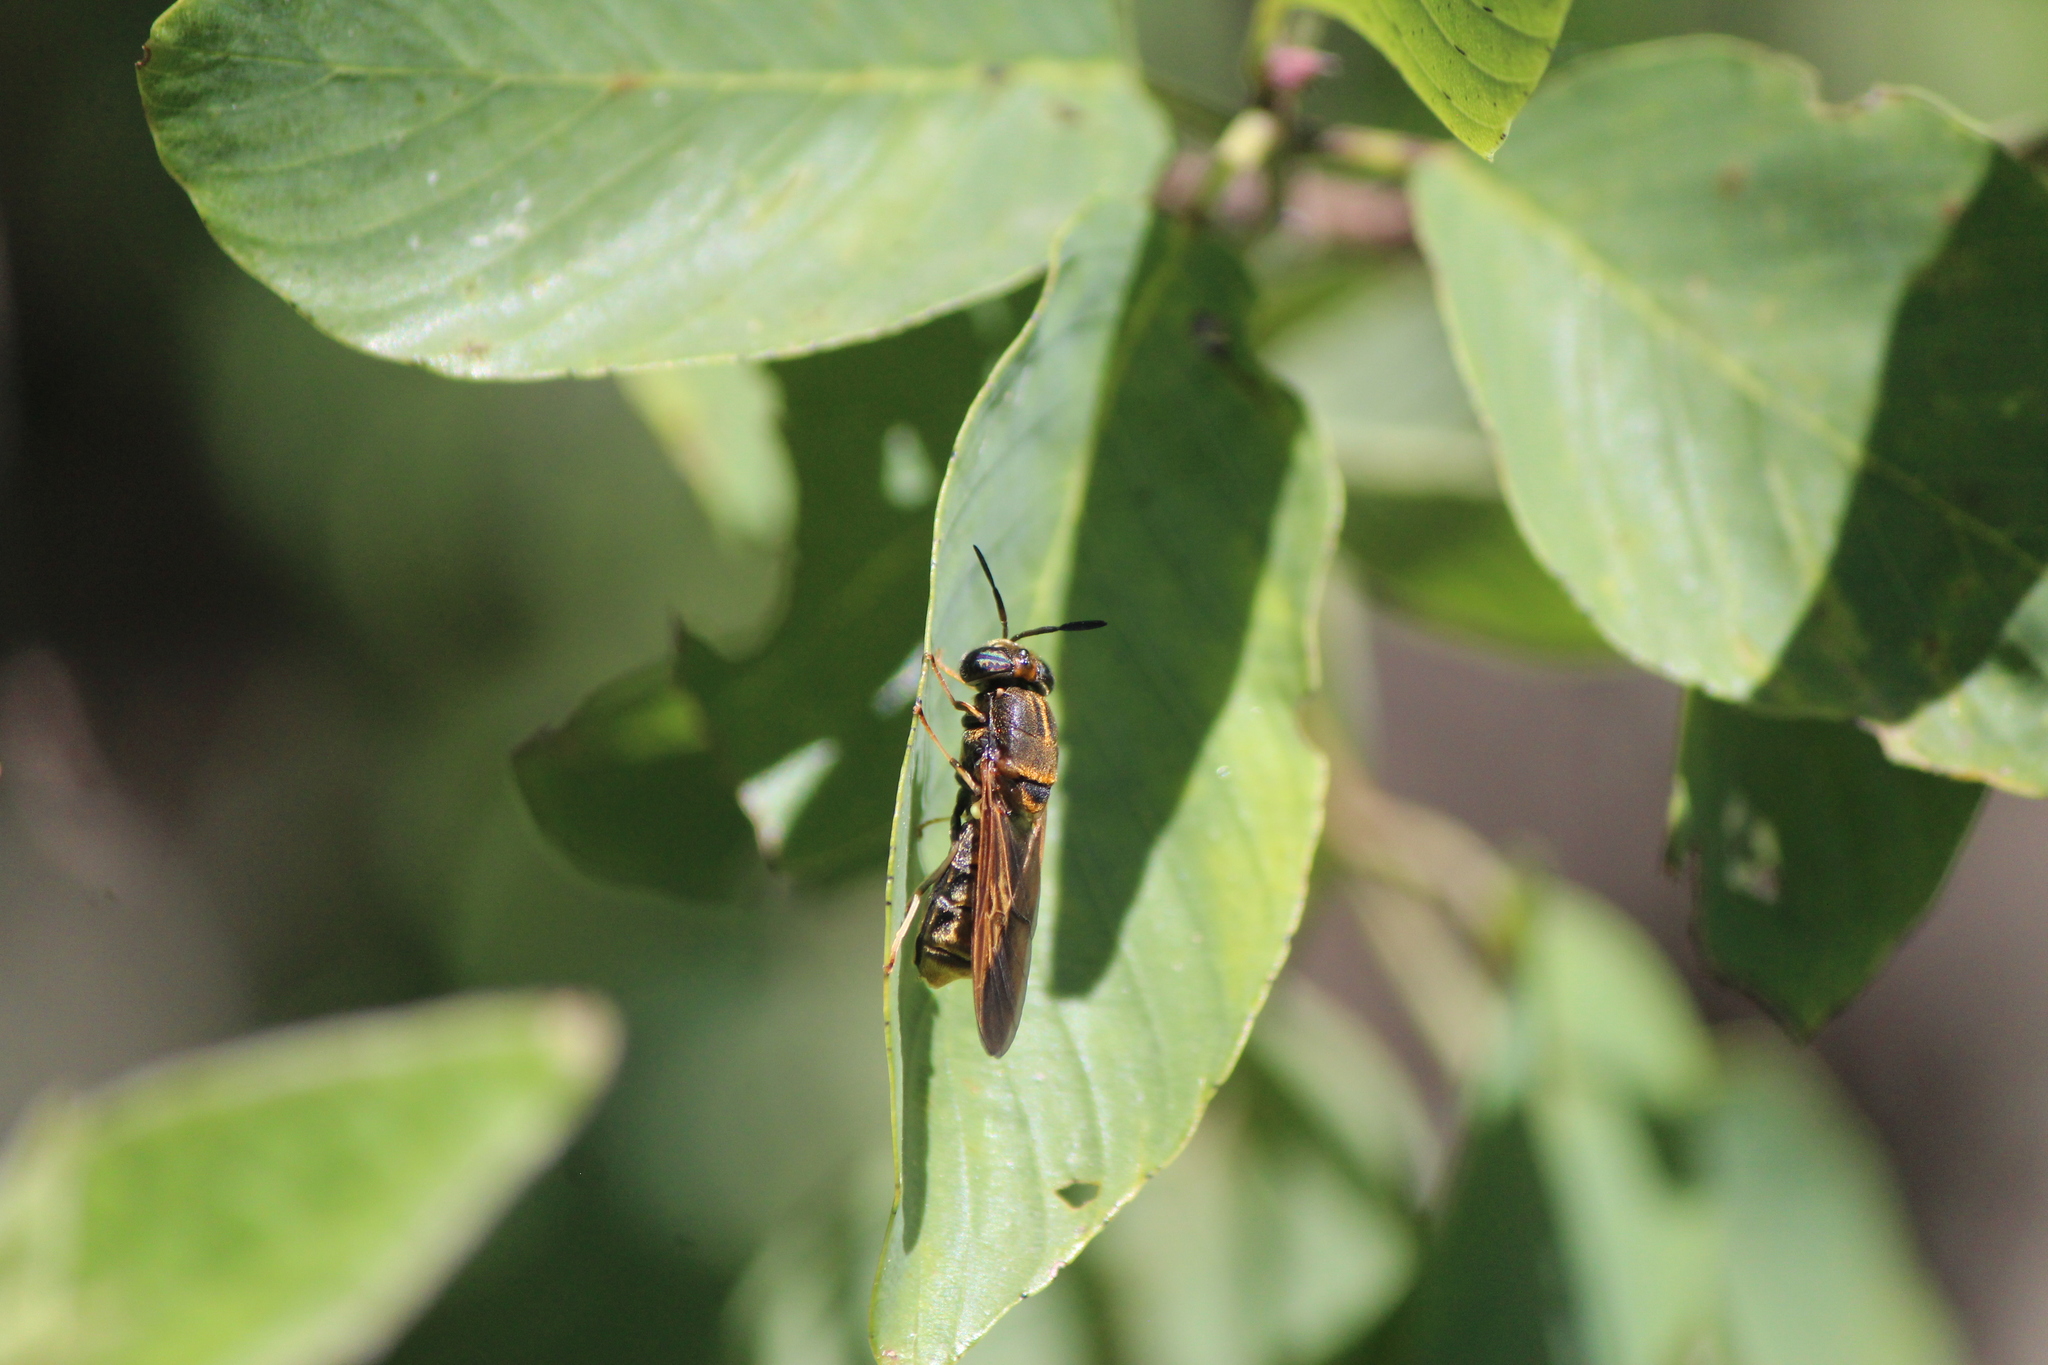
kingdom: Animalia
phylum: Arthropoda
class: Insecta
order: Diptera
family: Stratiomyidae
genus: Hermetia
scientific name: Hermetia aurata
